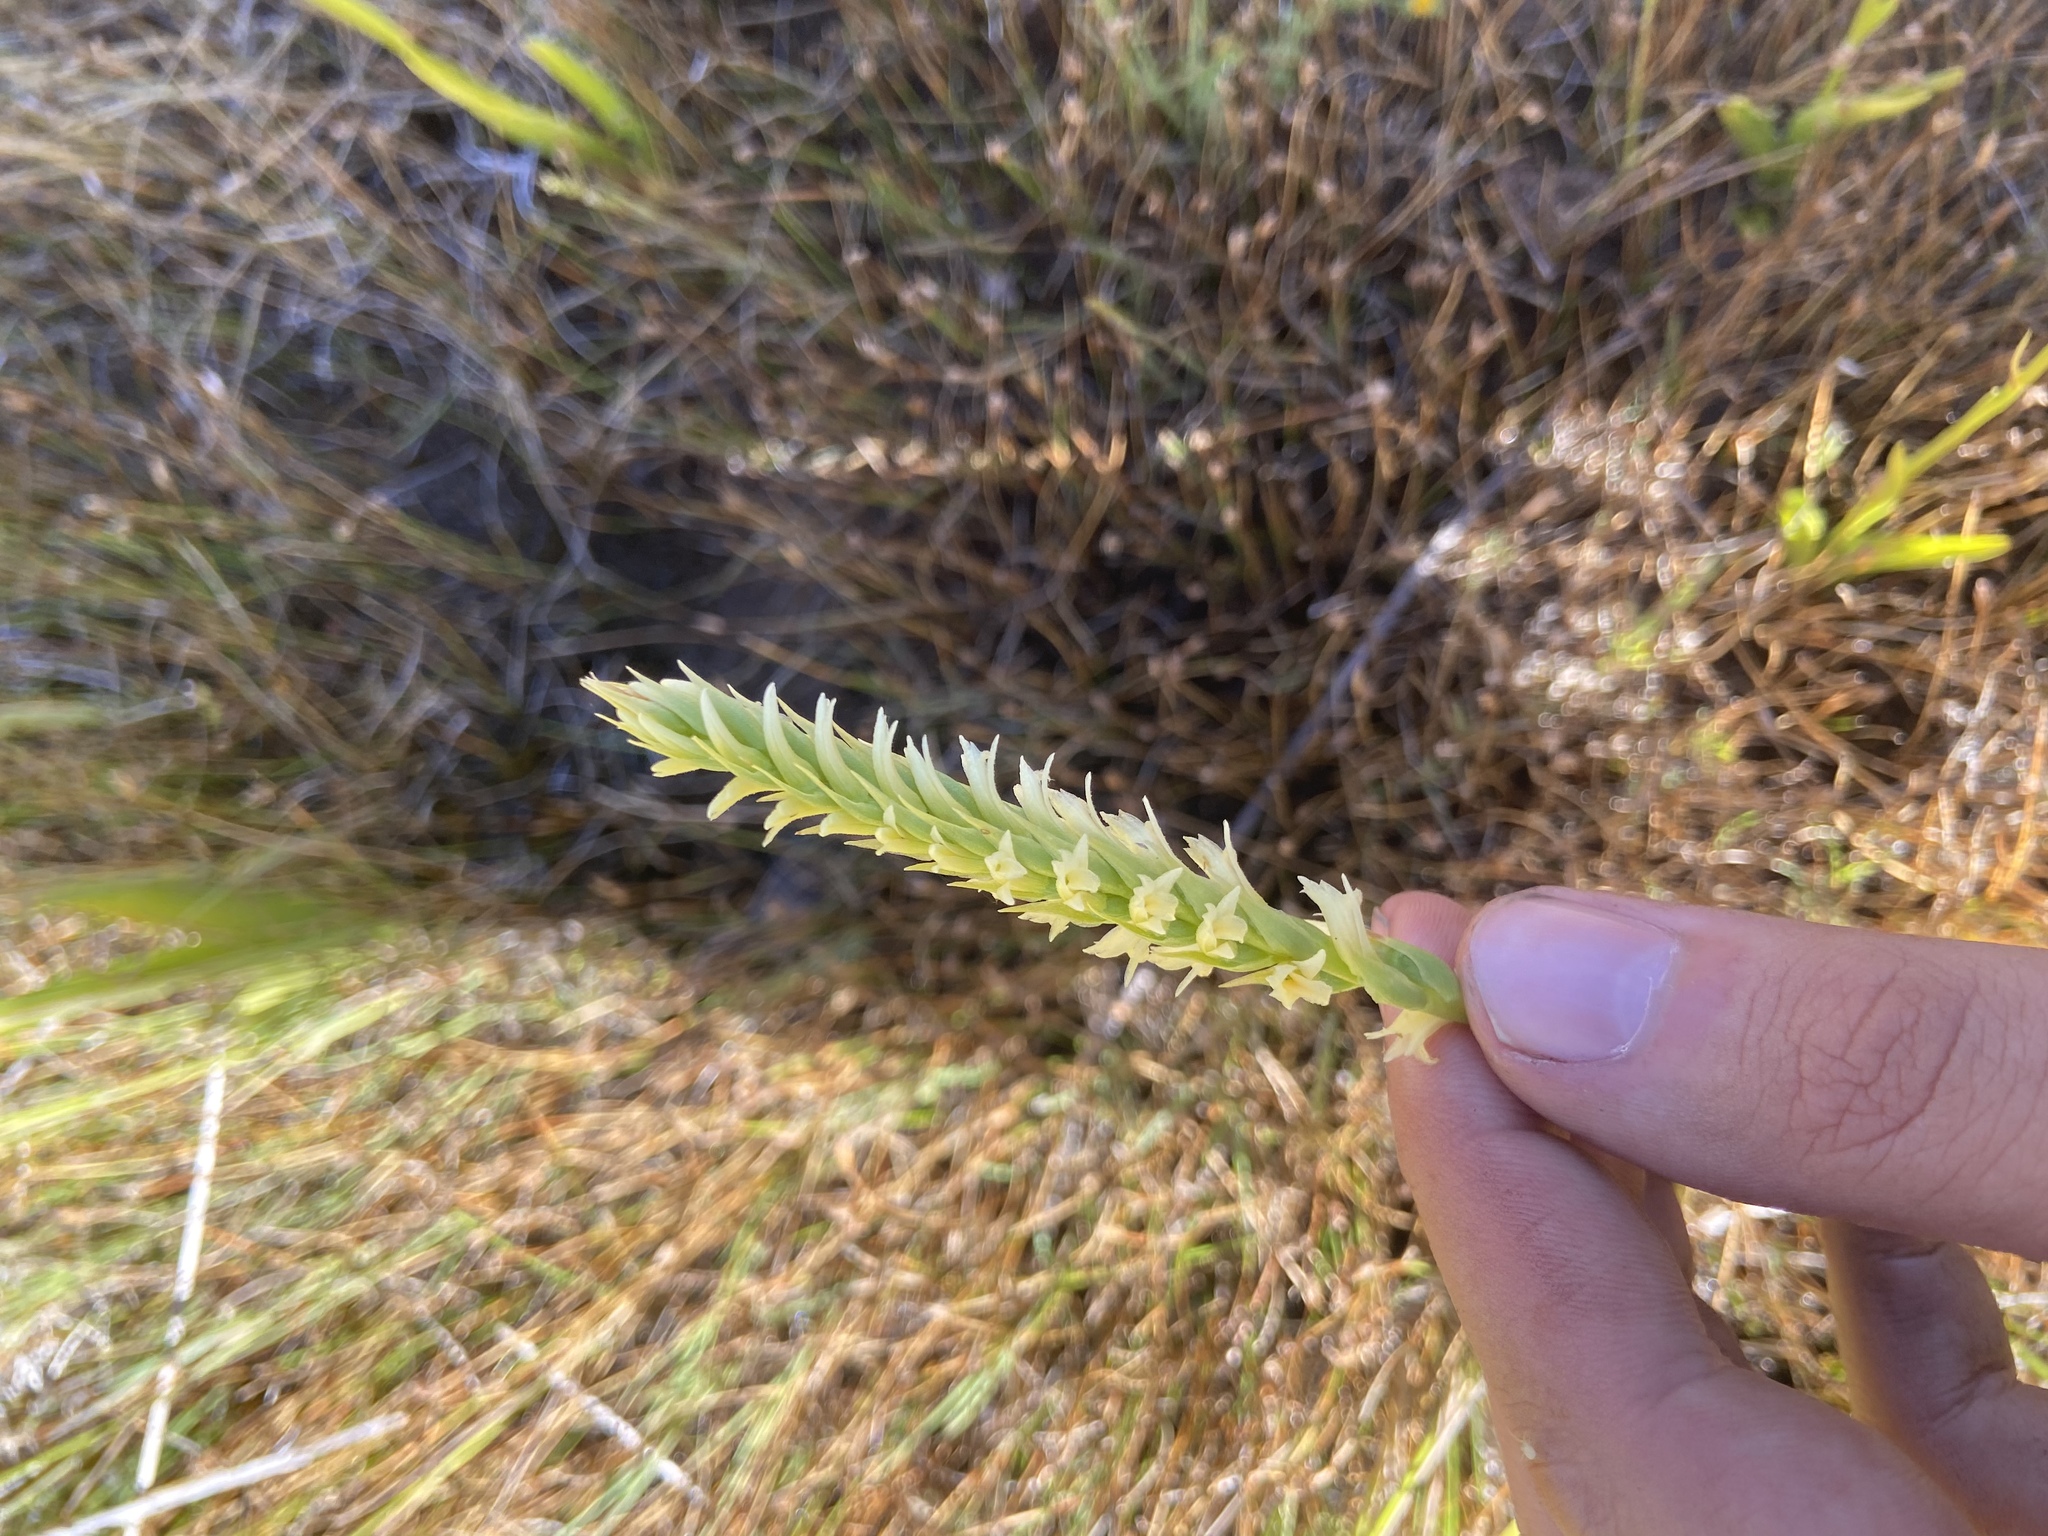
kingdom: Plantae
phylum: Tracheophyta
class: Liliopsida
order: Asparagales
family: Orchidaceae
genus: Spiranthes
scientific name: Spiranthes porrifolia
